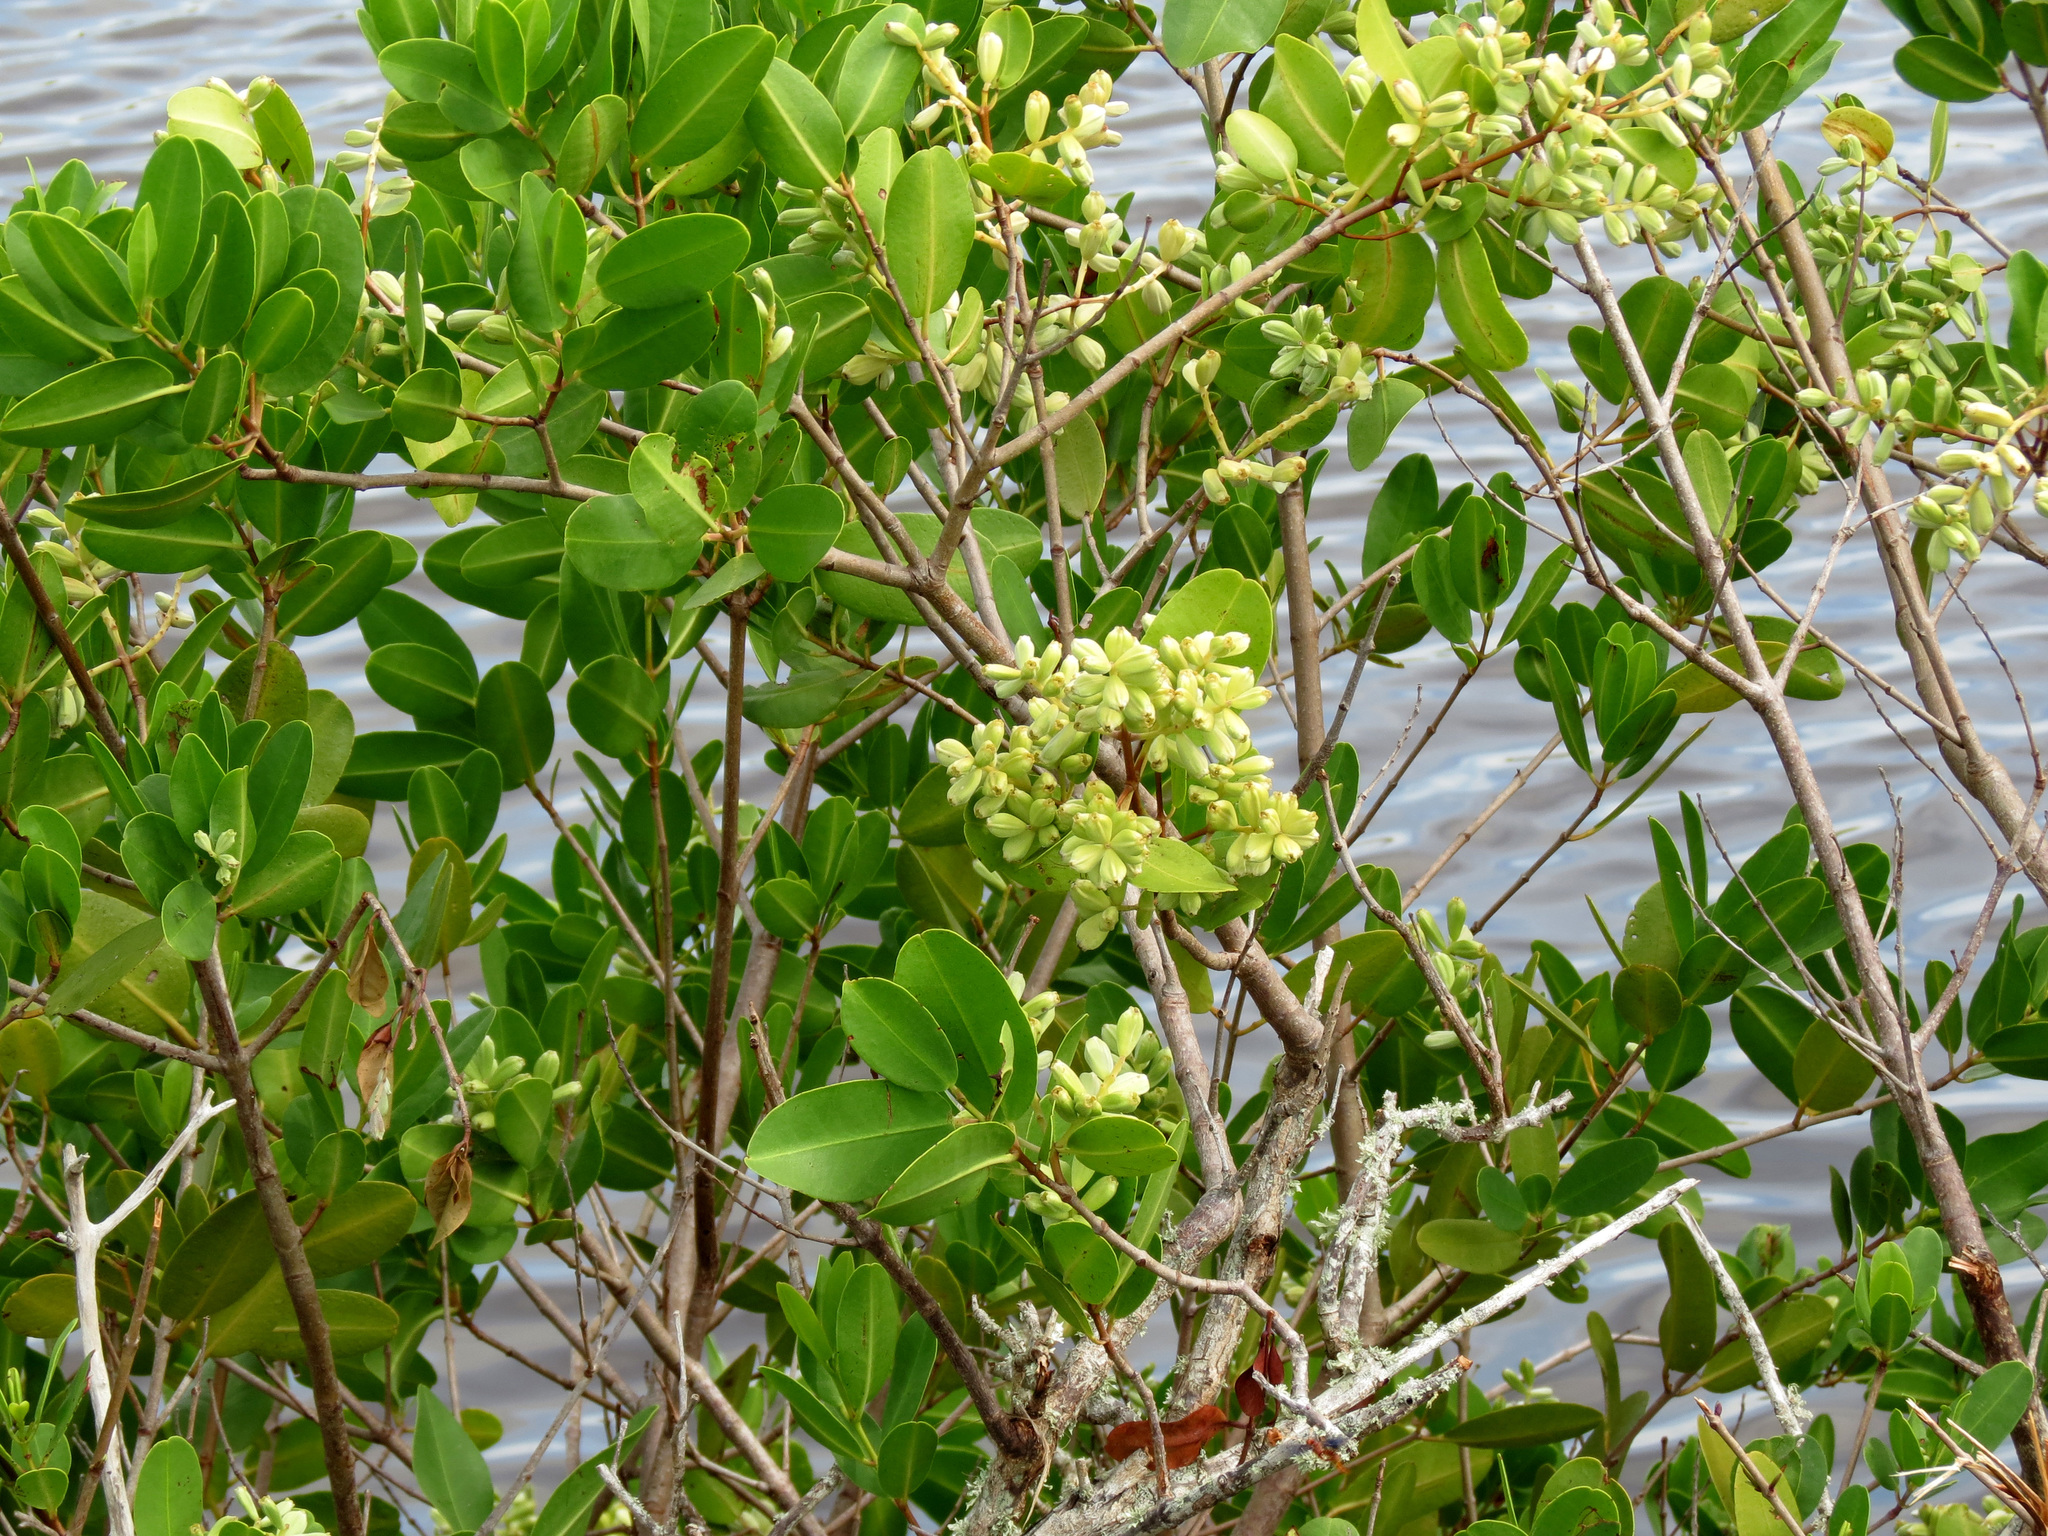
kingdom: Plantae
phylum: Tracheophyta
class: Magnoliopsida
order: Myrtales
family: Combretaceae
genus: Laguncularia
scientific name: Laguncularia racemosa
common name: White mangrove
